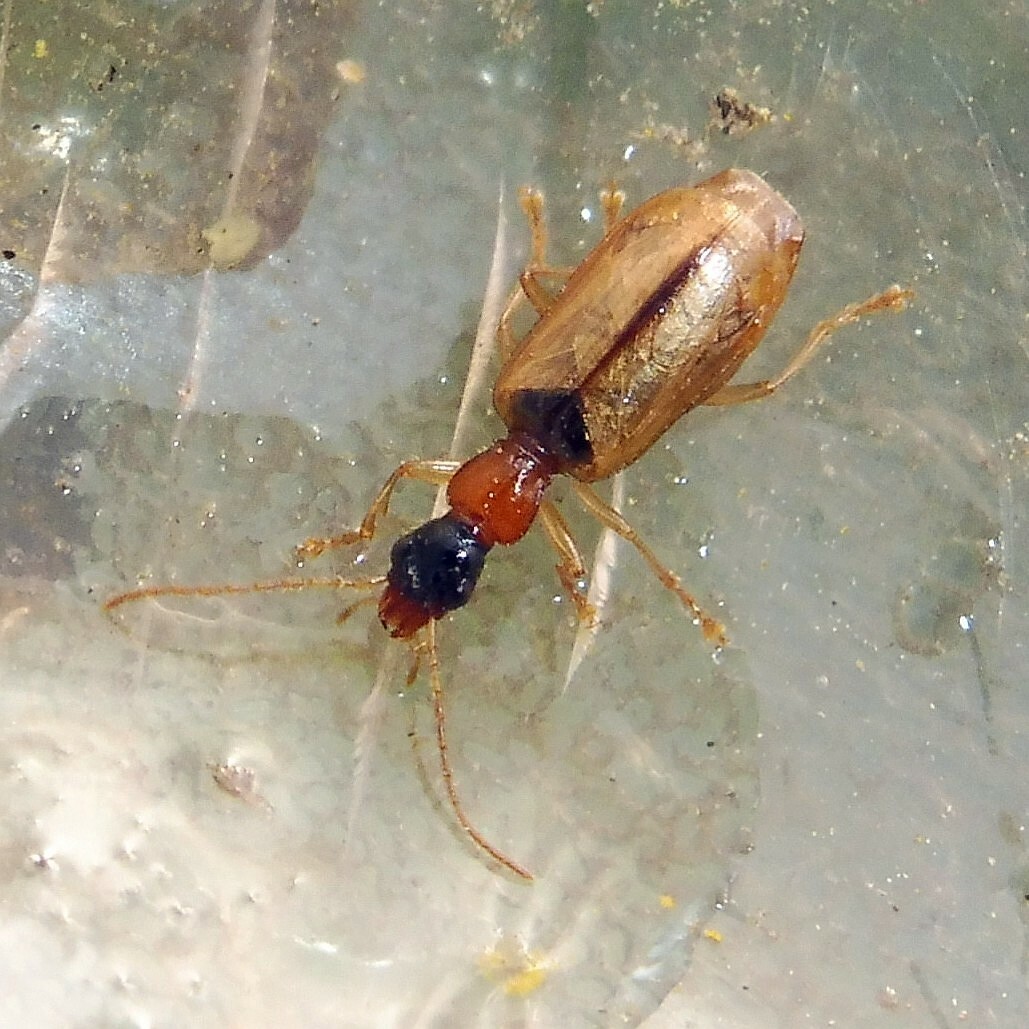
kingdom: Animalia
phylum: Arthropoda
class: Insecta
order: Coleoptera
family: Carabidae
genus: Demetrias
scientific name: Demetrias atricapillus
